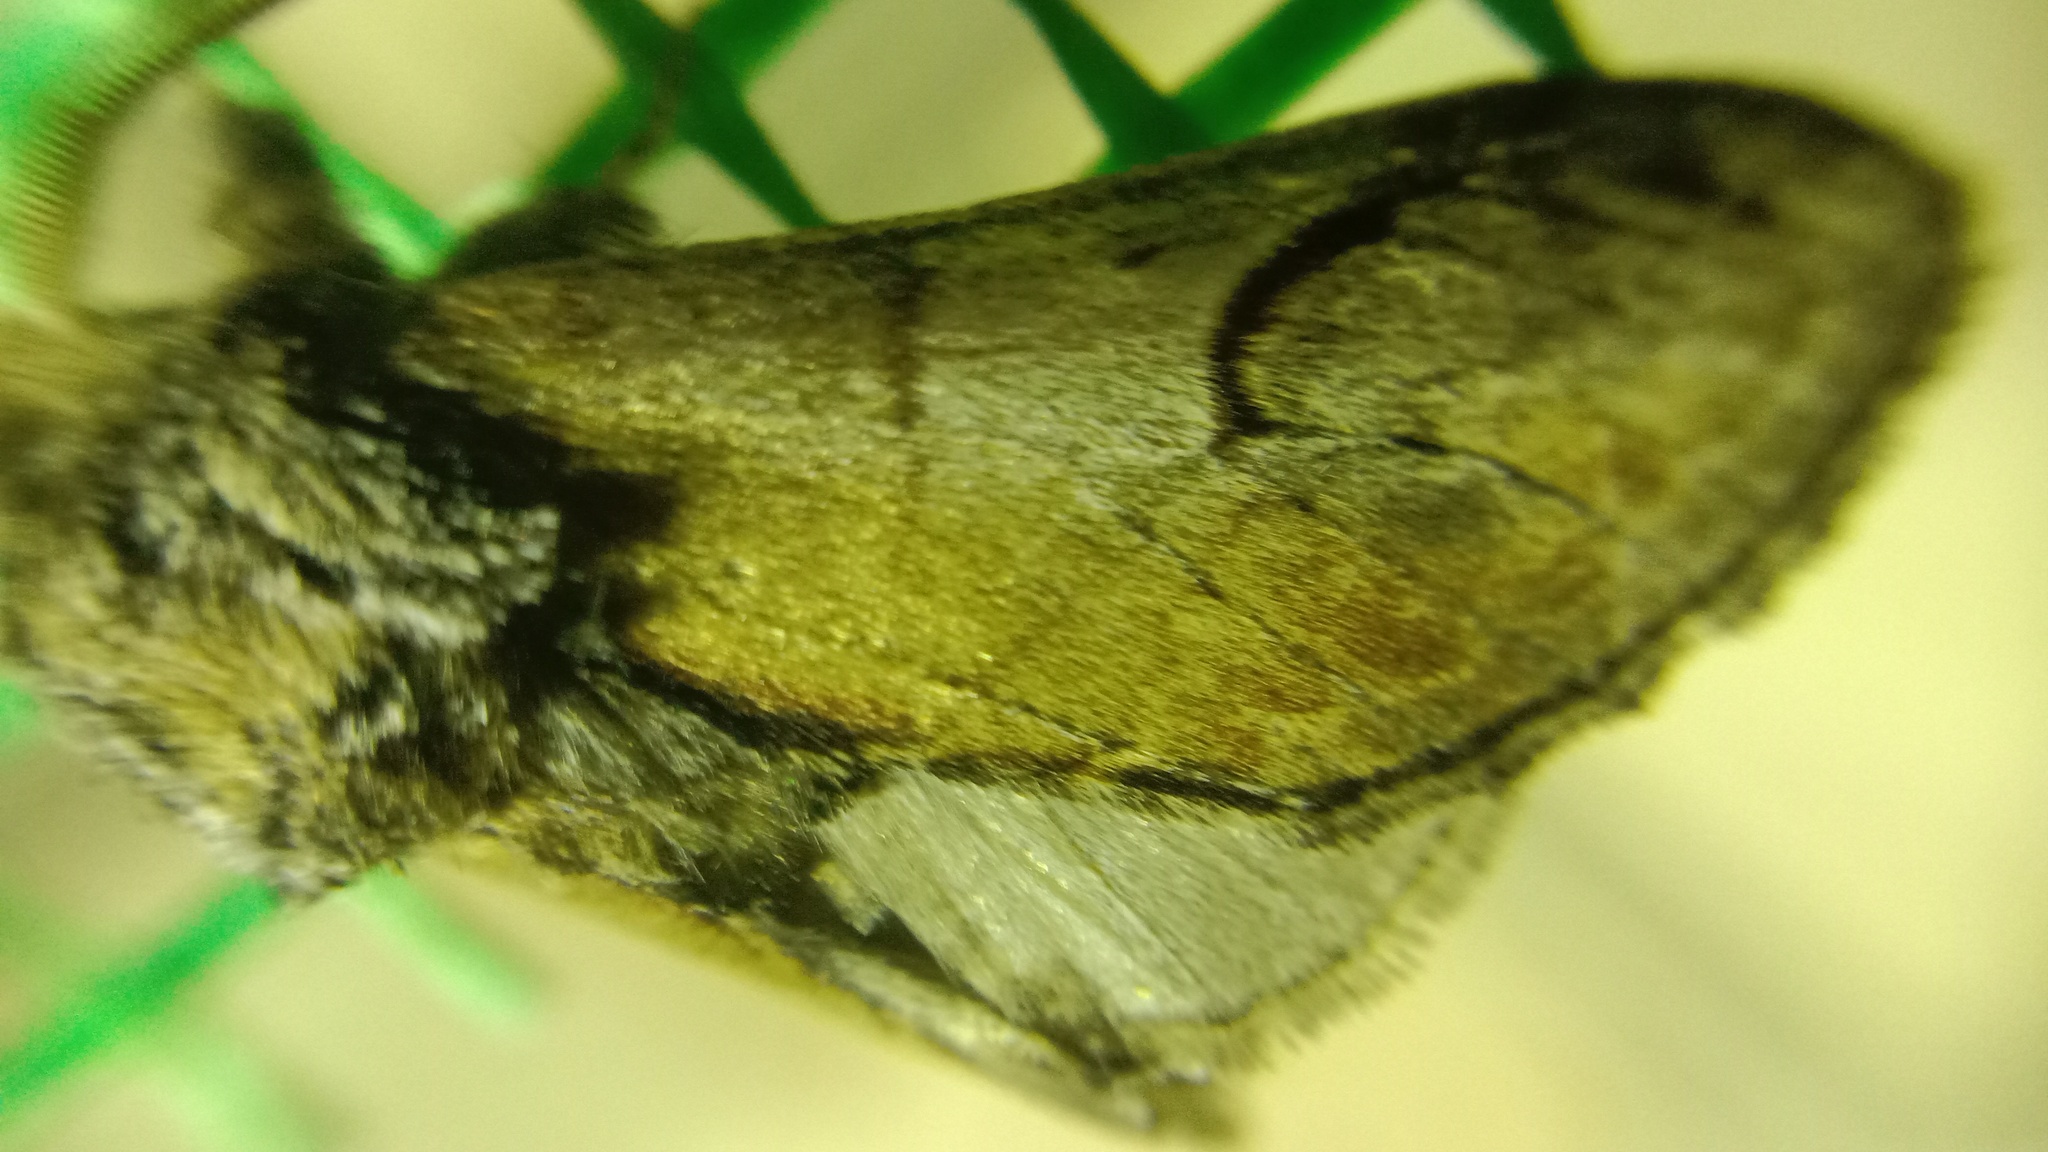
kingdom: Animalia
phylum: Arthropoda
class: Insecta
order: Lepidoptera
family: Notodontidae
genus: Notodonta
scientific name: Notodonta ziczac
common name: Pebble prominent
